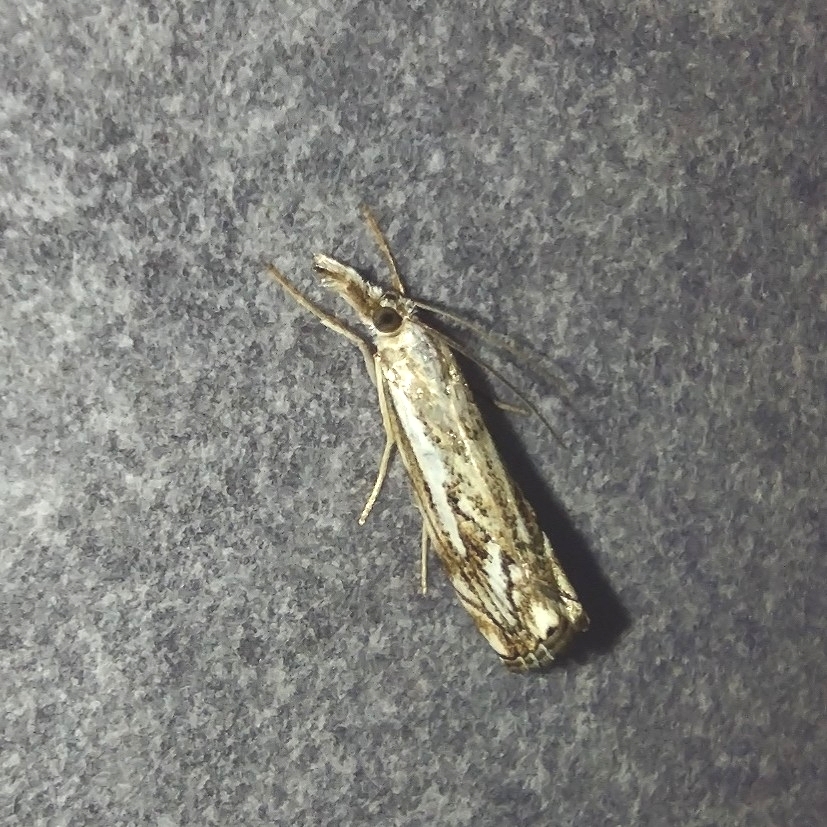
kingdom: Animalia
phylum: Arthropoda
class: Insecta
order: Lepidoptera
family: Crambidae
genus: Catoptria
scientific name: Catoptria falsella
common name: Chequered grass-veneer
